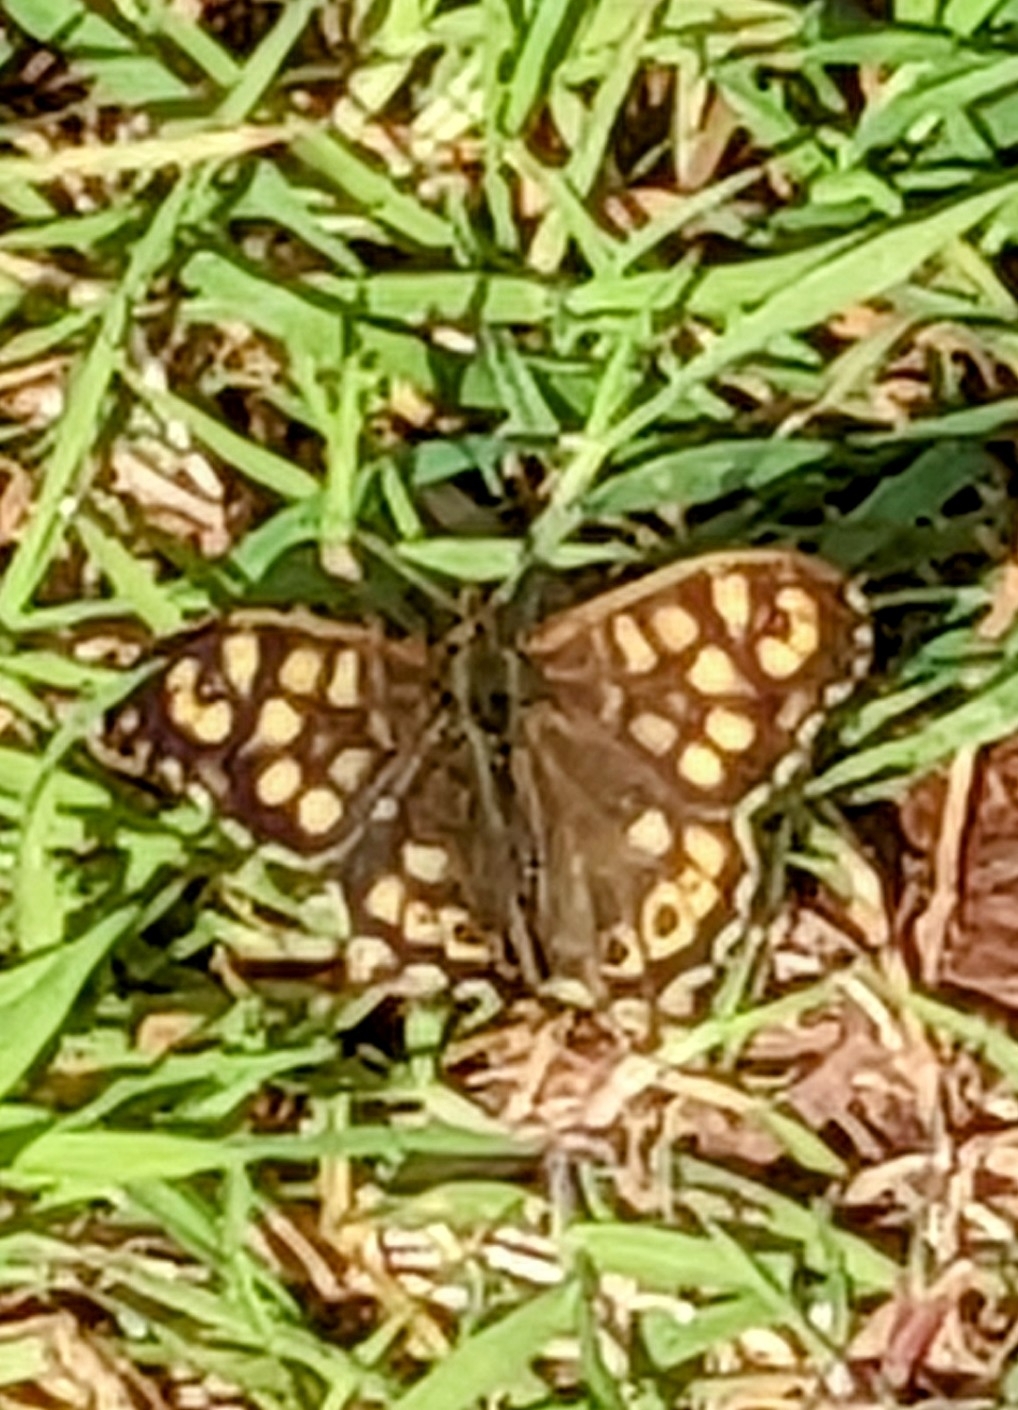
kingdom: Animalia
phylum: Arthropoda
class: Insecta
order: Lepidoptera
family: Nymphalidae
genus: Pararge
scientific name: Pararge aegeria
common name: Speckled wood
